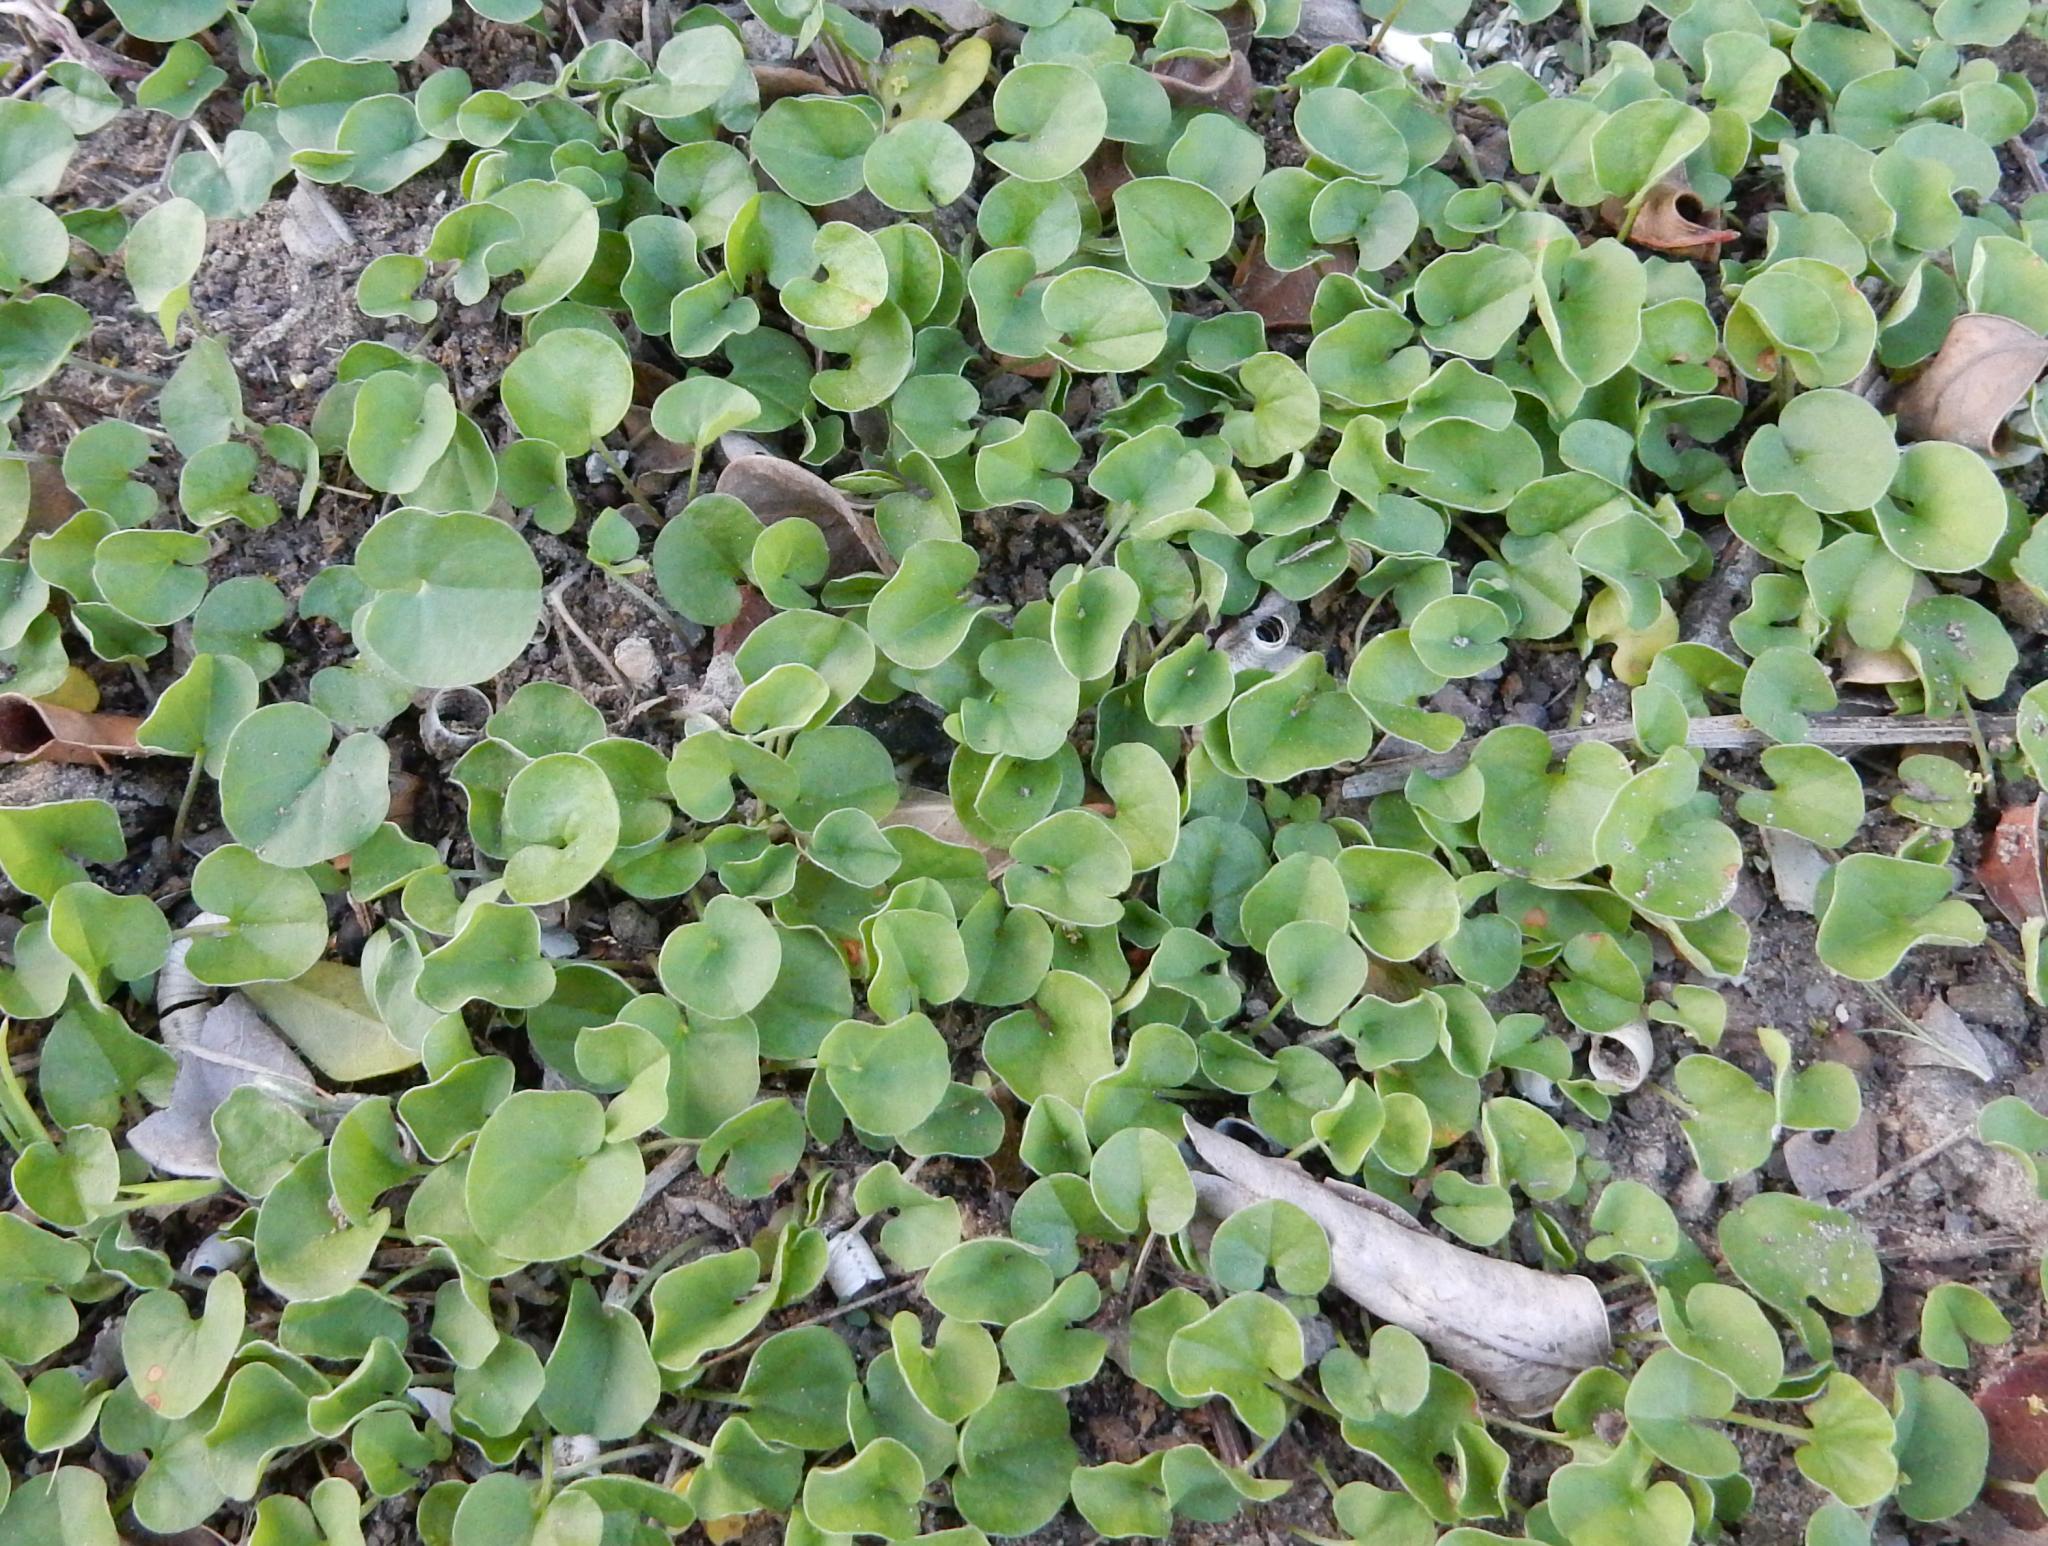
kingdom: Plantae
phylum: Tracheophyta
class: Magnoliopsida
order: Solanales
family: Convolvulaceae
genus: Dichondra
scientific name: Dichondra micrantha
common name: Kidneyweed
